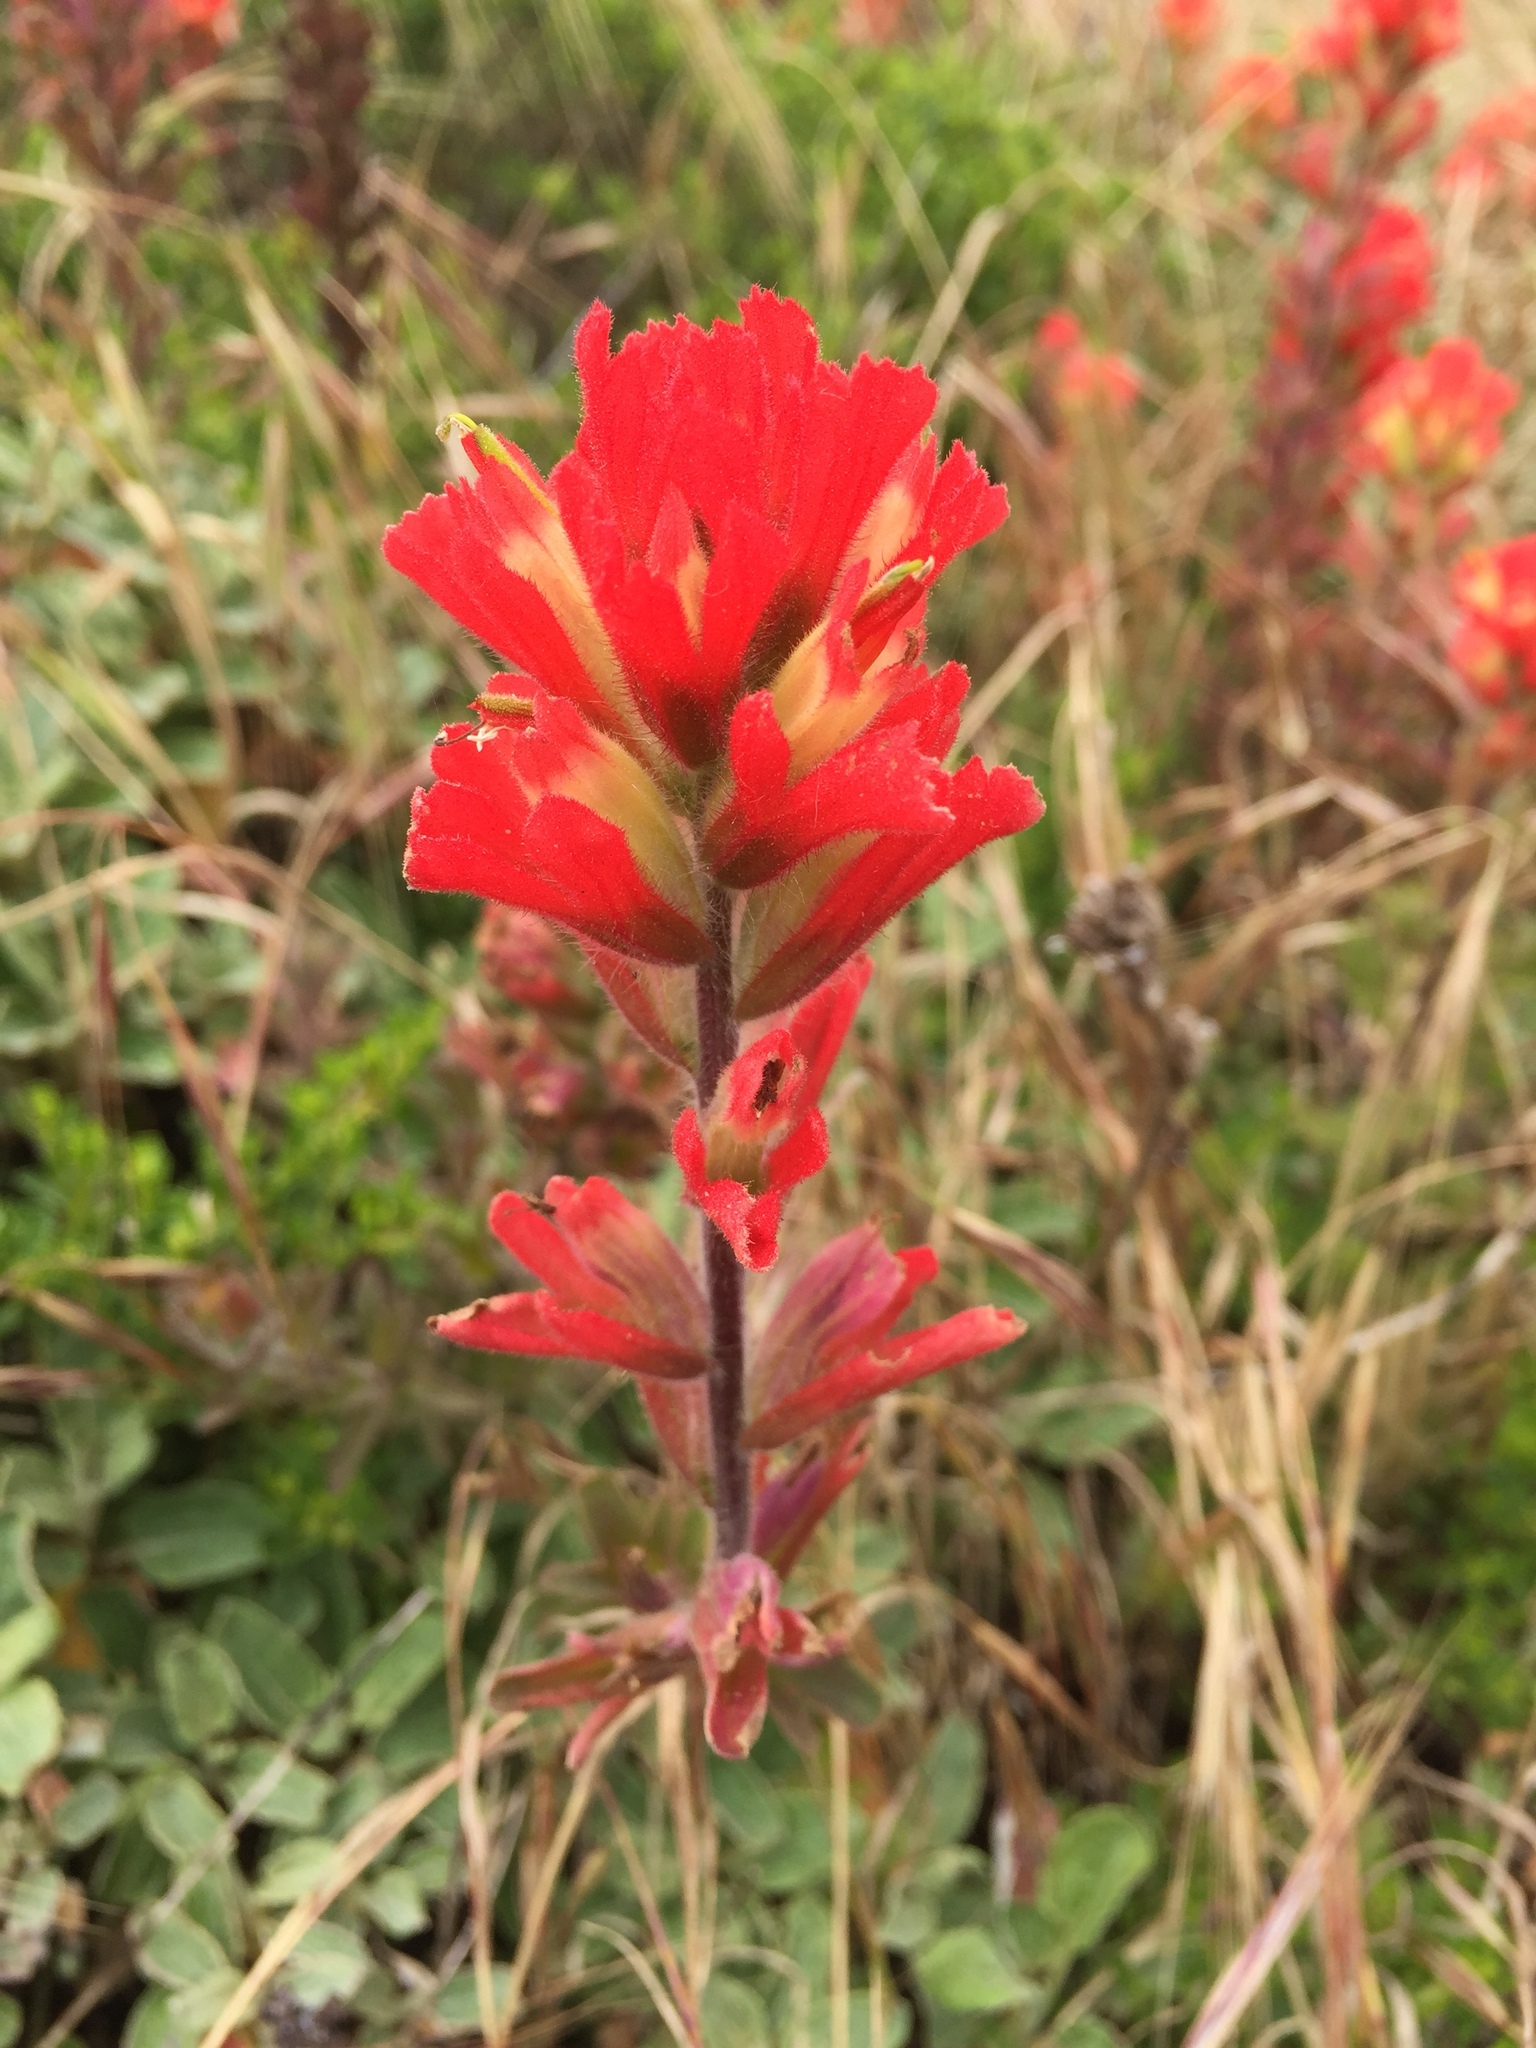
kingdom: Plantae
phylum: Tracheophyta
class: Magnoliopsida
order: Lamiales
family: Orobanchaceae
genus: Castilleja
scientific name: Castilleja affinis
